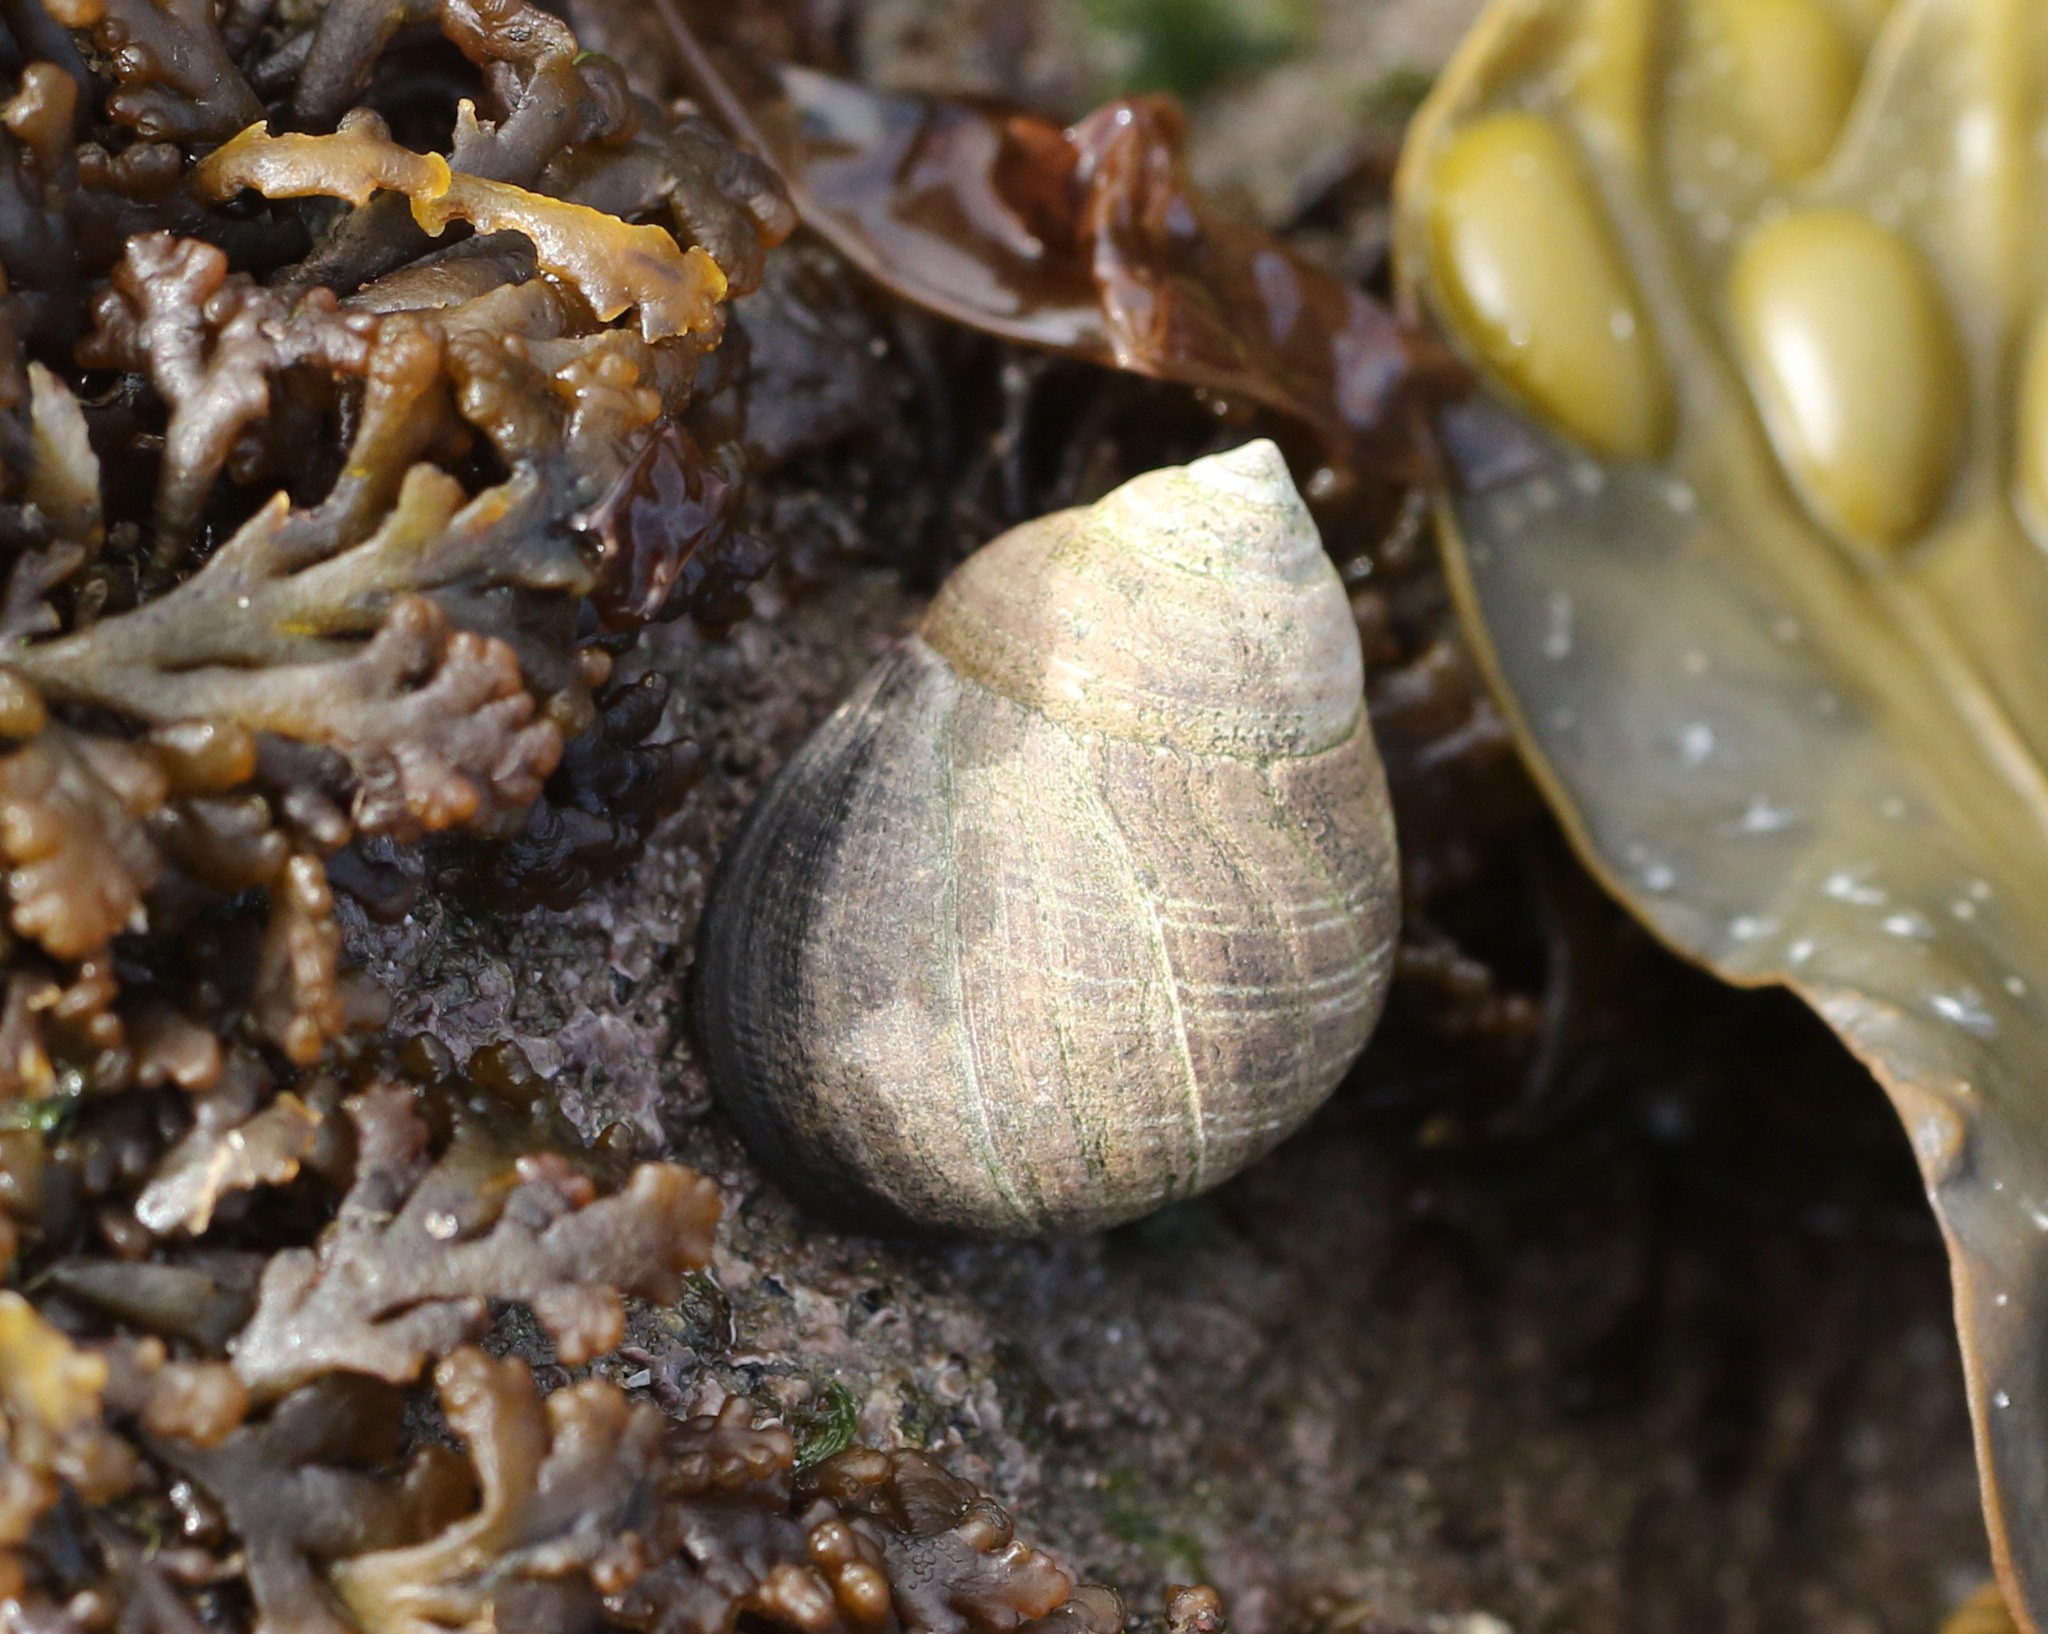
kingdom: Animalia
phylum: Mollusca
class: Gastropoda
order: Littorinimorpha
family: Littorinidae
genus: Littorina
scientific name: Littorina littorea
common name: Common periwinkle
